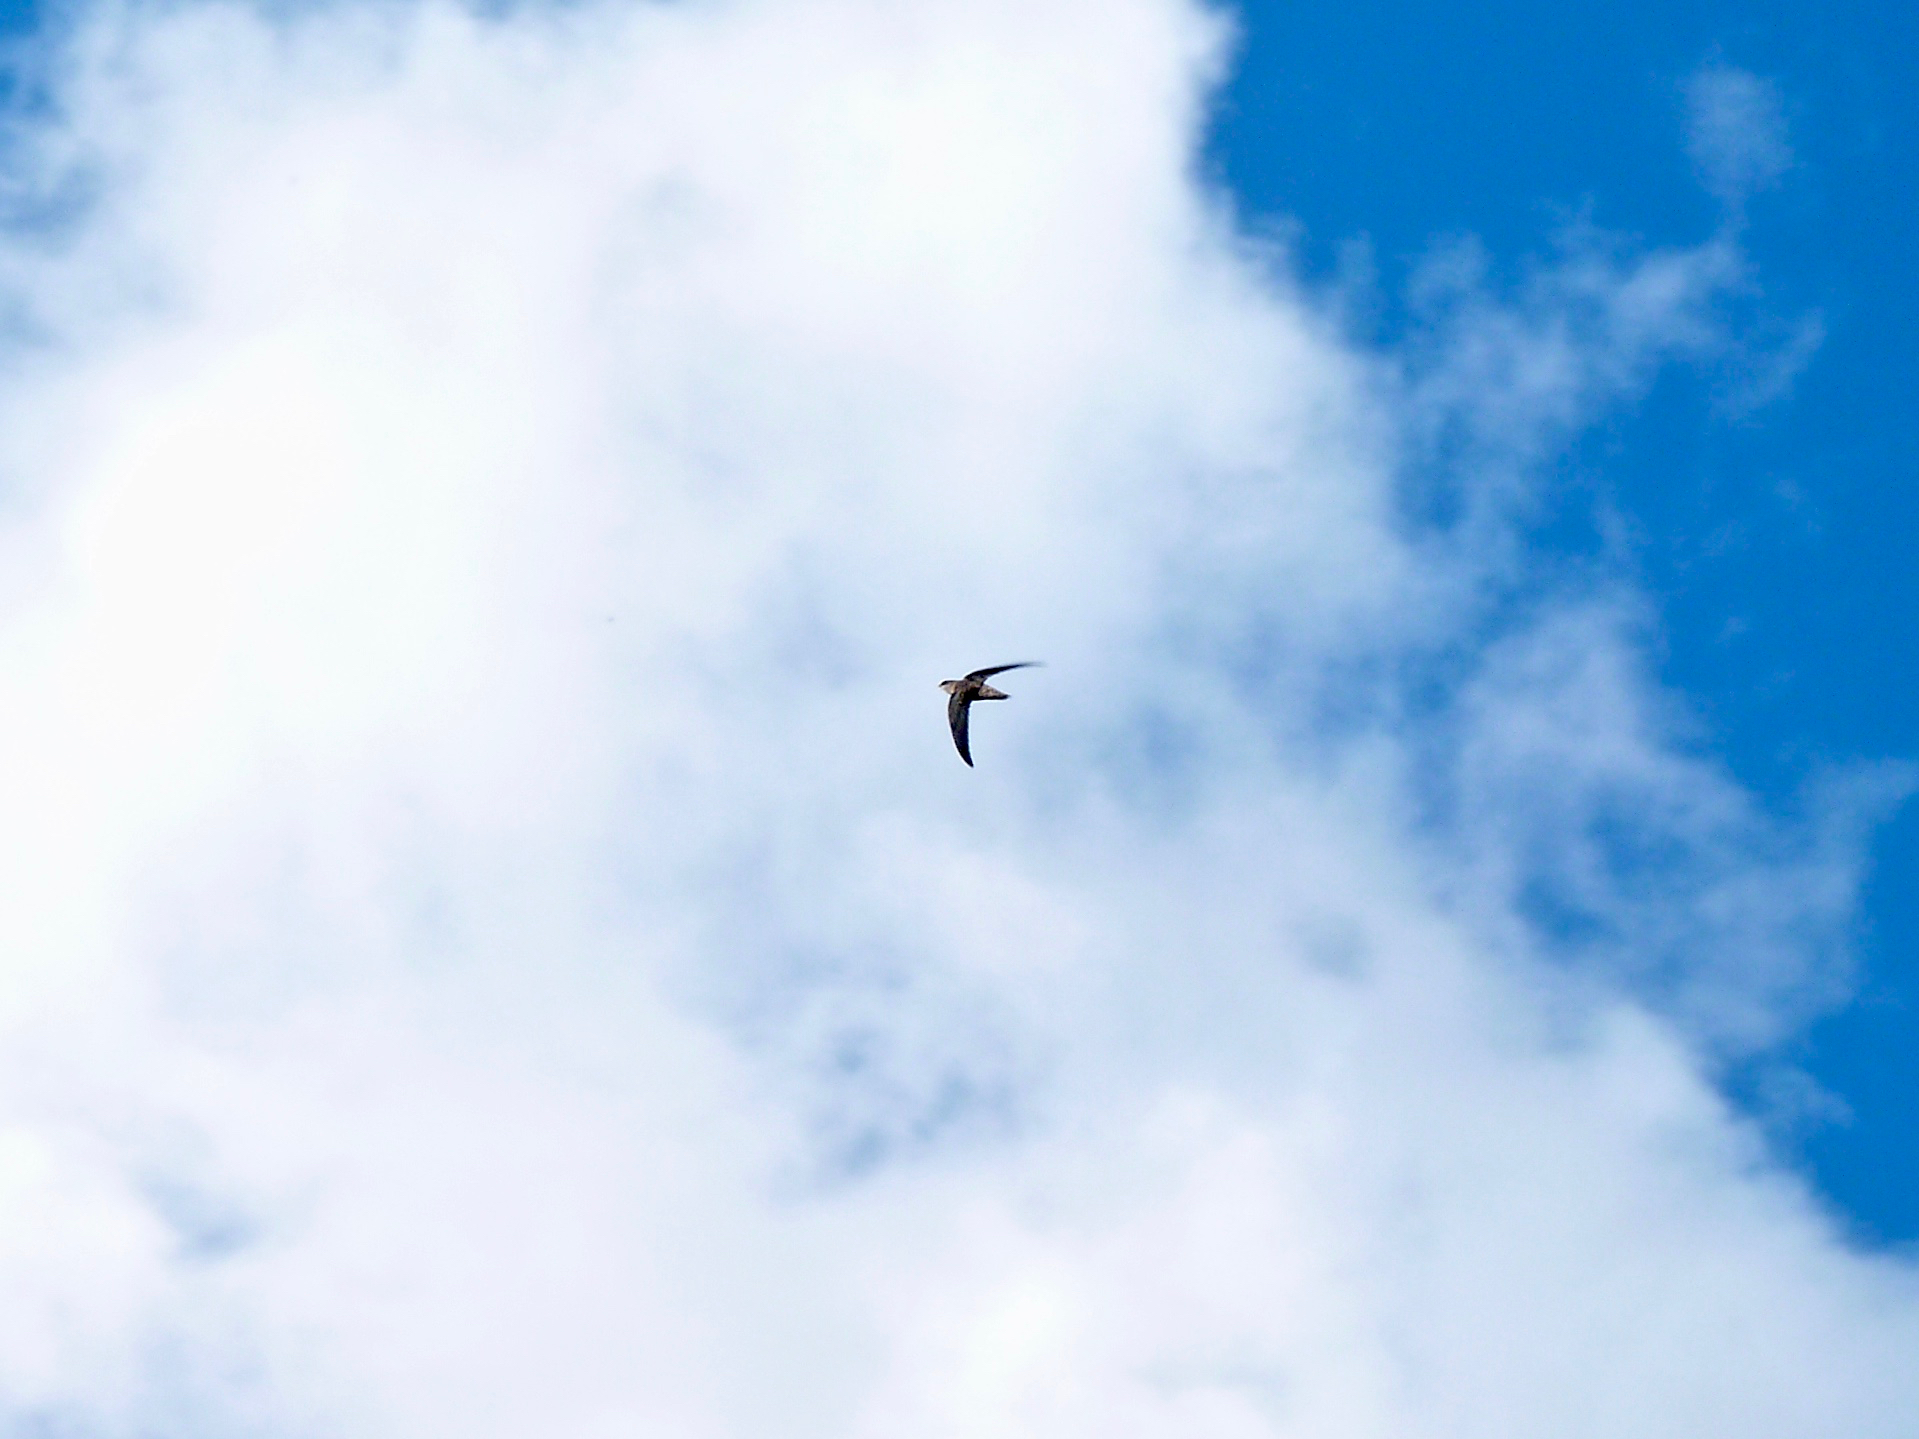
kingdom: Animalia
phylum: Chordata
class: Aves
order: Apodiformes
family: Apodidae
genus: Chaetura
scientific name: Chaetura pelagica
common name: Chimney swift
